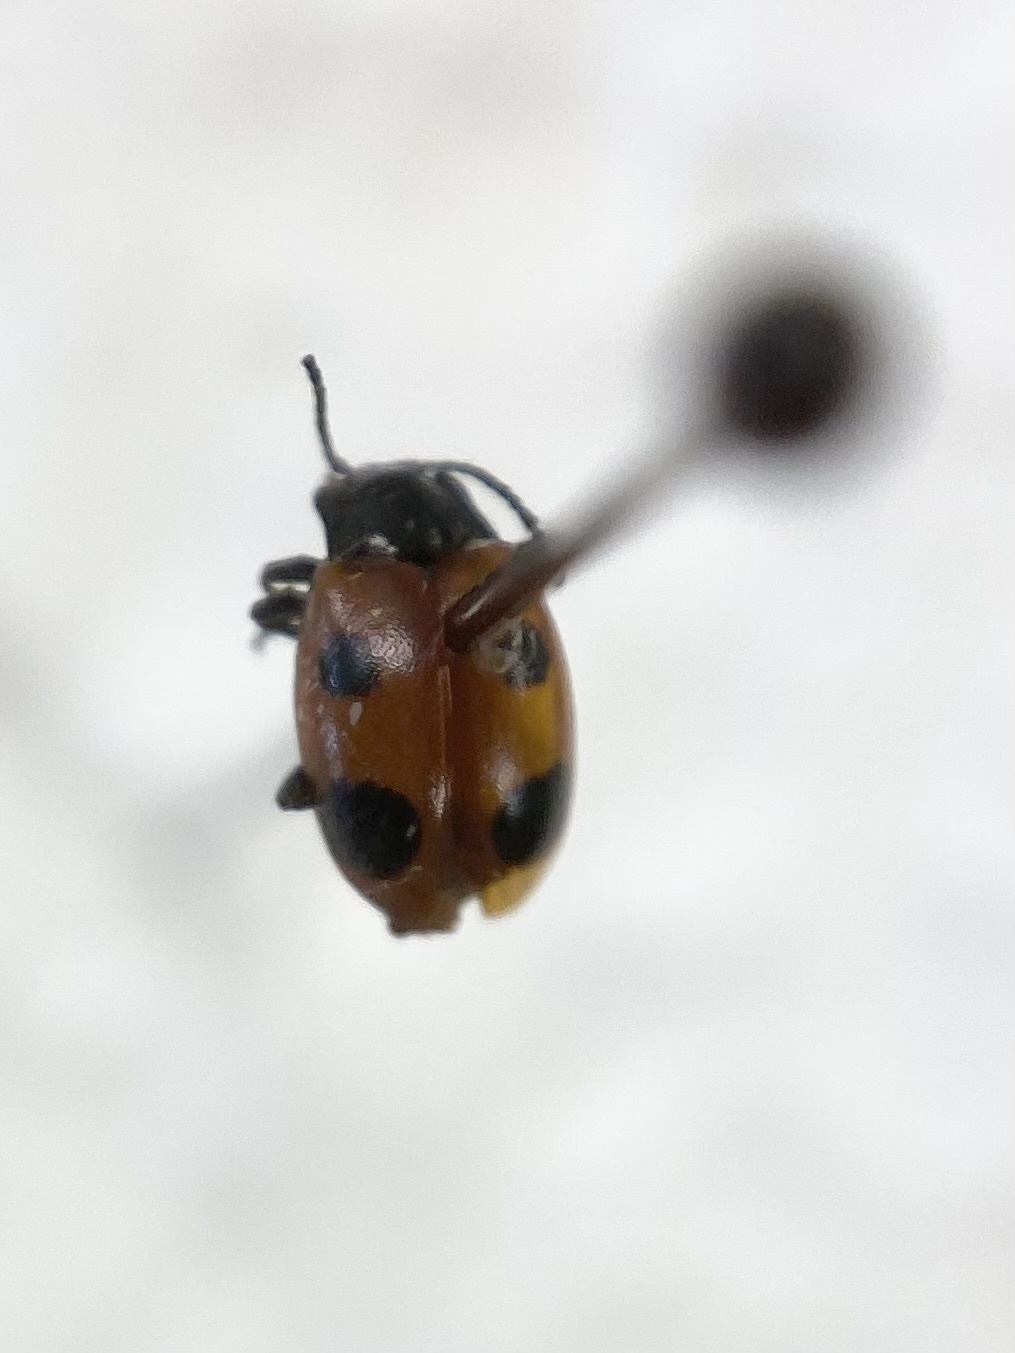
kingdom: Animalia
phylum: Arthropoda
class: Insecta
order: Coleoptera
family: Endomychidae
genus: Endomychus
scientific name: Endomychus biguttatus
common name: Handsome fungus beetle
